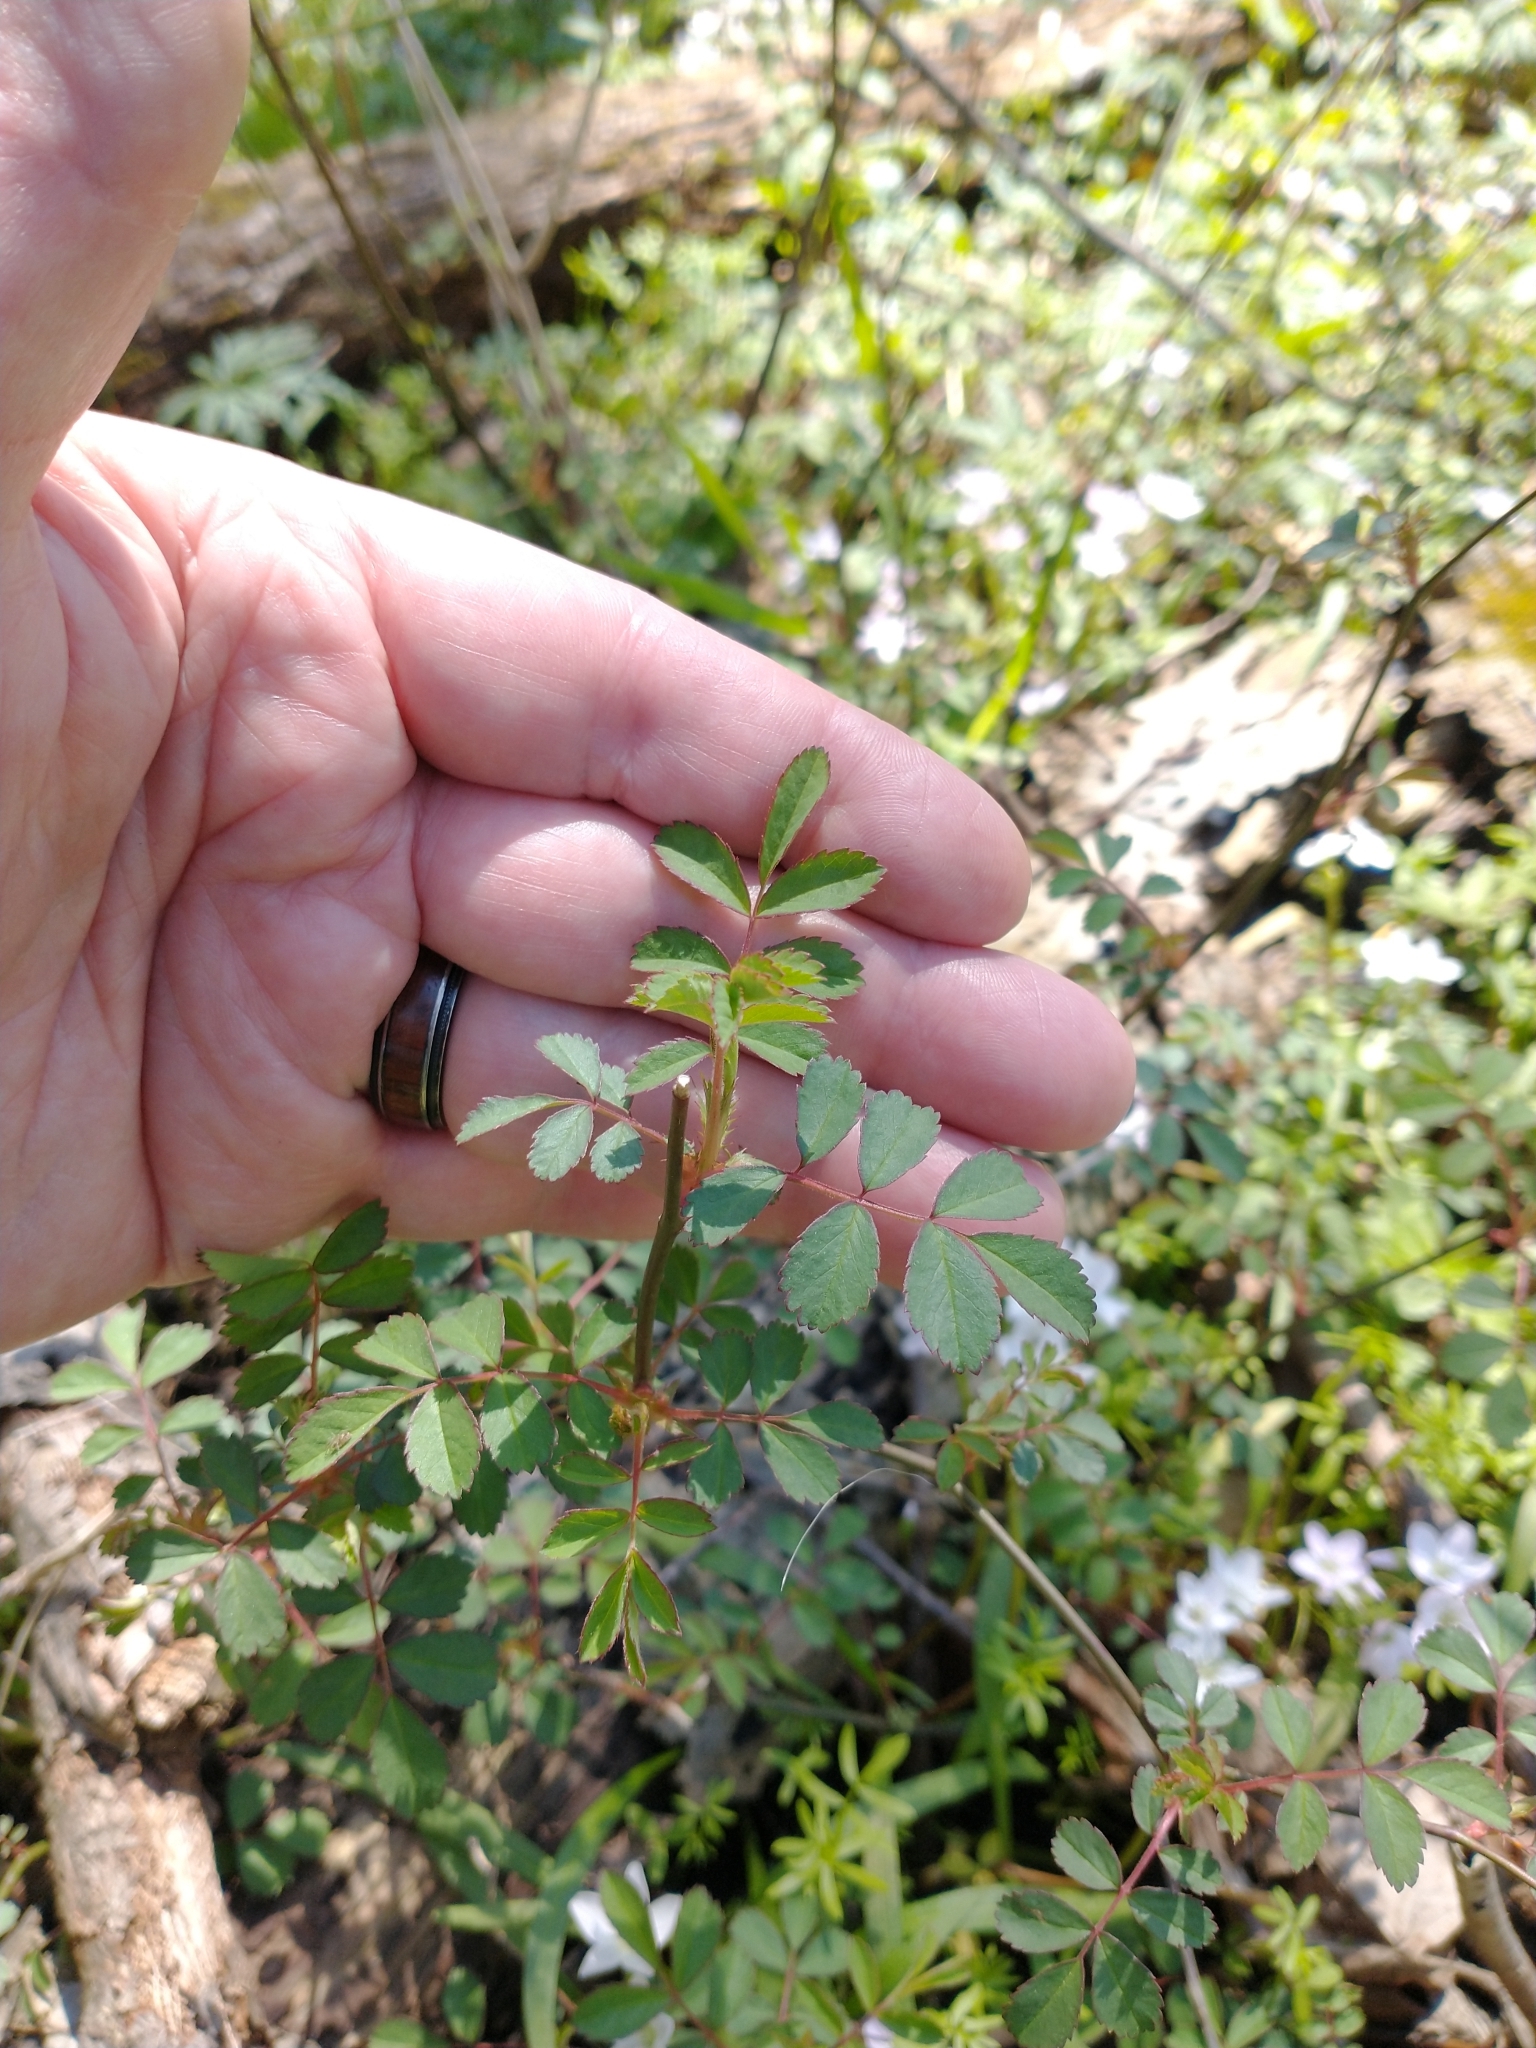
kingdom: Plantae
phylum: Tracheophyta
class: Magnoliopsida
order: Rosales
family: Rosaceae
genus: Rosa
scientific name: Rosa multiflora
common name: Multiflora rose
